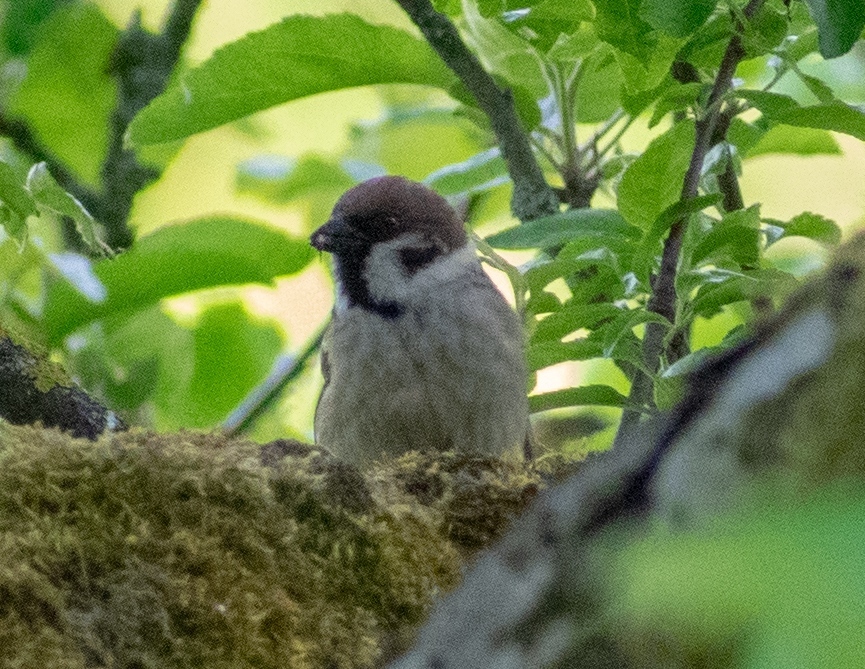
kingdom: Animalia
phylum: Chordata
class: Aves
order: Passeriformes
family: Passeridae
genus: Passer
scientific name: Passer montanus
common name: Eurasian tree sparrow
